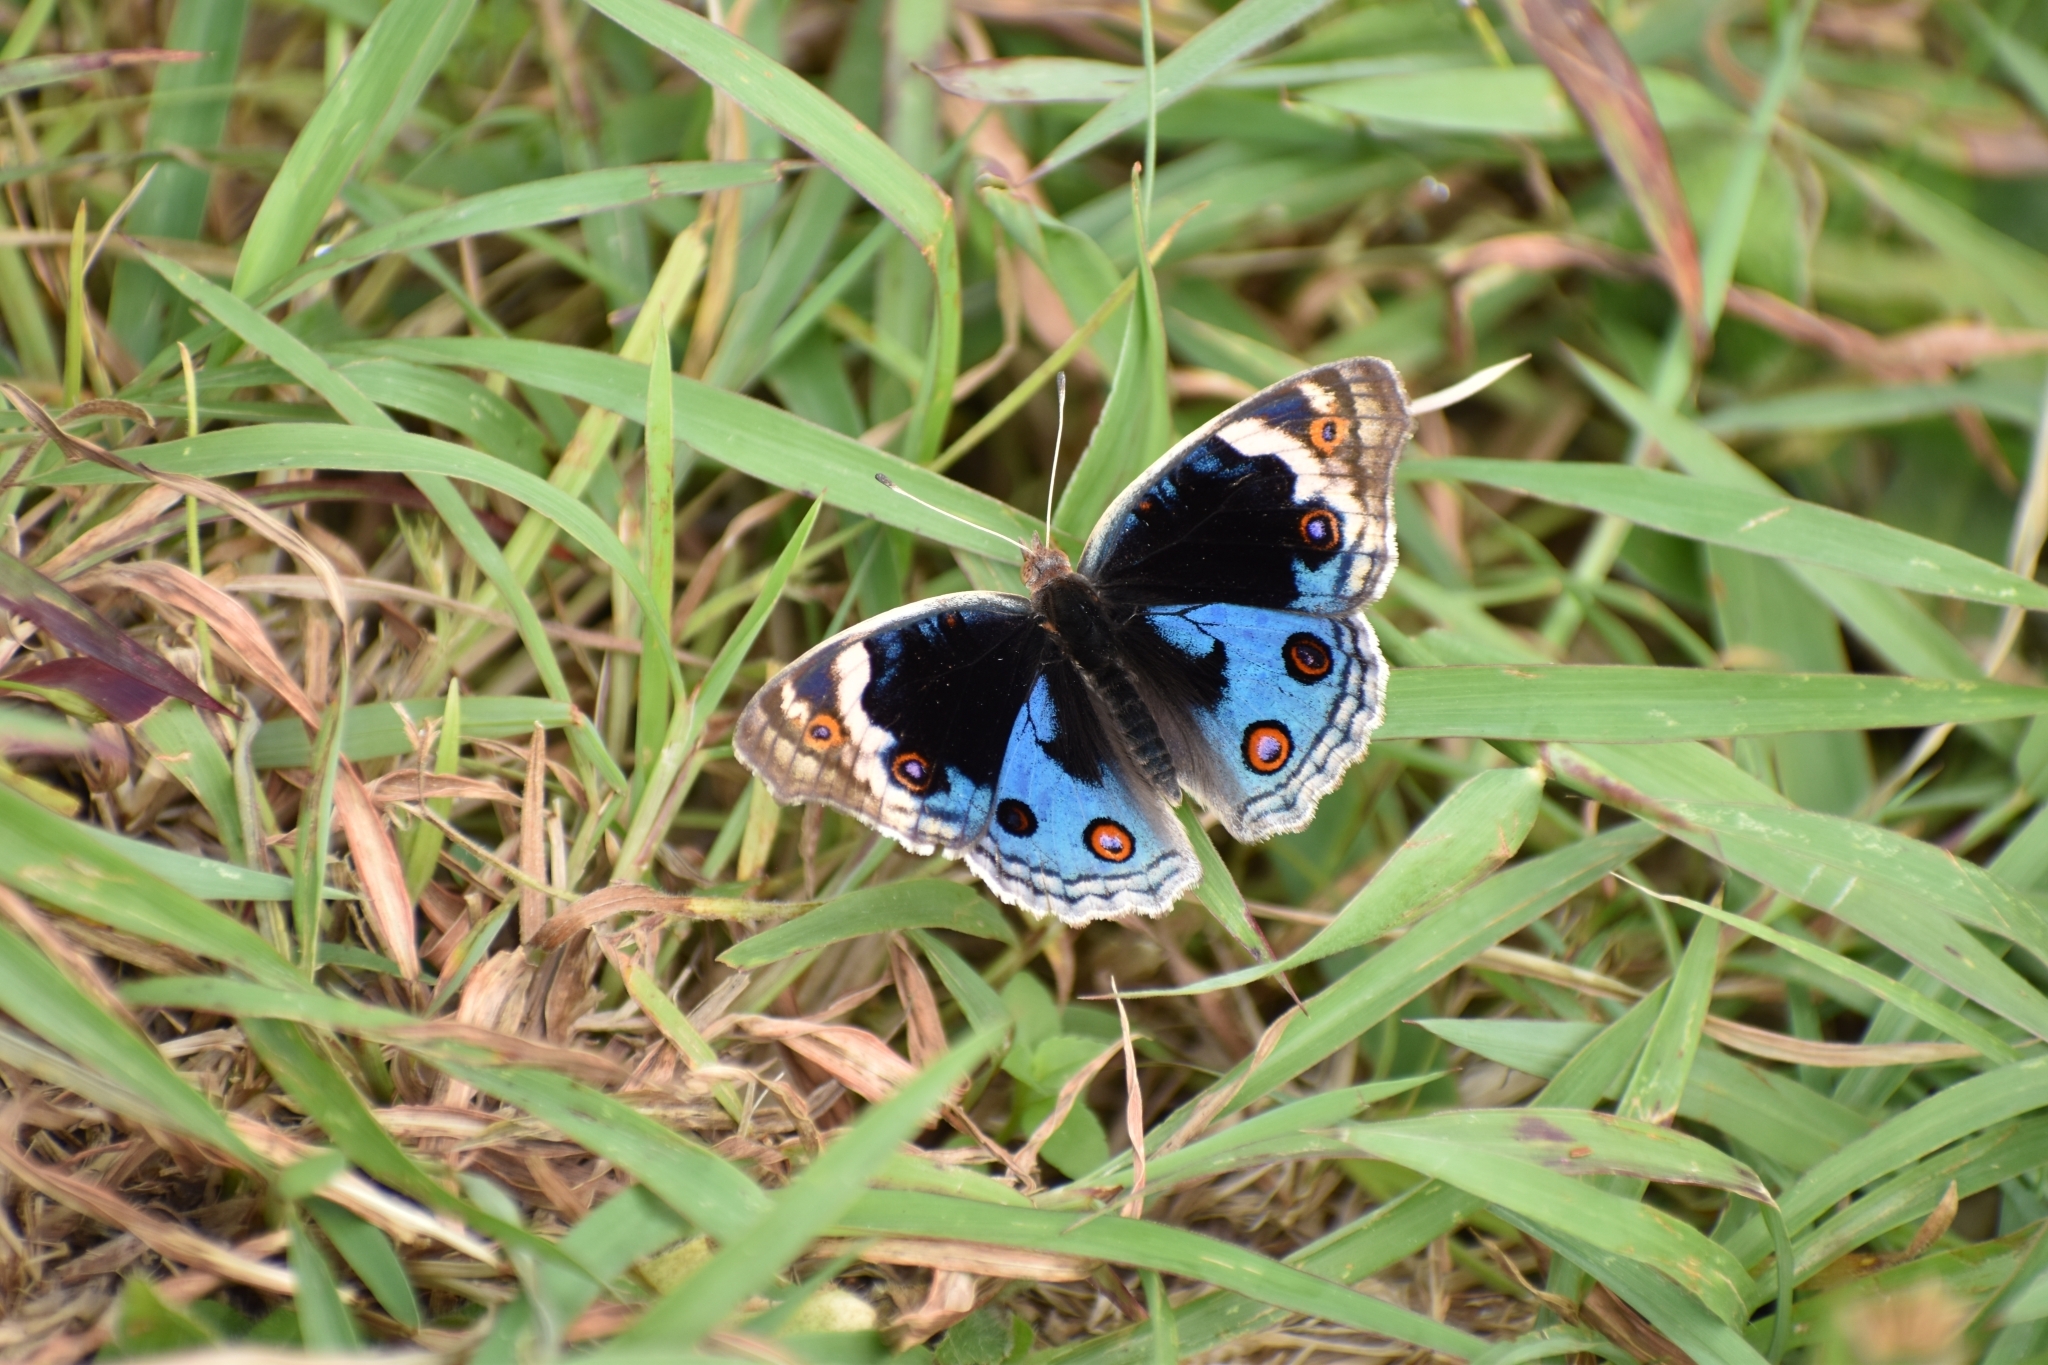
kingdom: Animalia
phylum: Arthropoda
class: Insecta
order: Lepidoptera
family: Nymphalidae
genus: Junonia
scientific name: Junonia orithya
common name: Blue pansy
